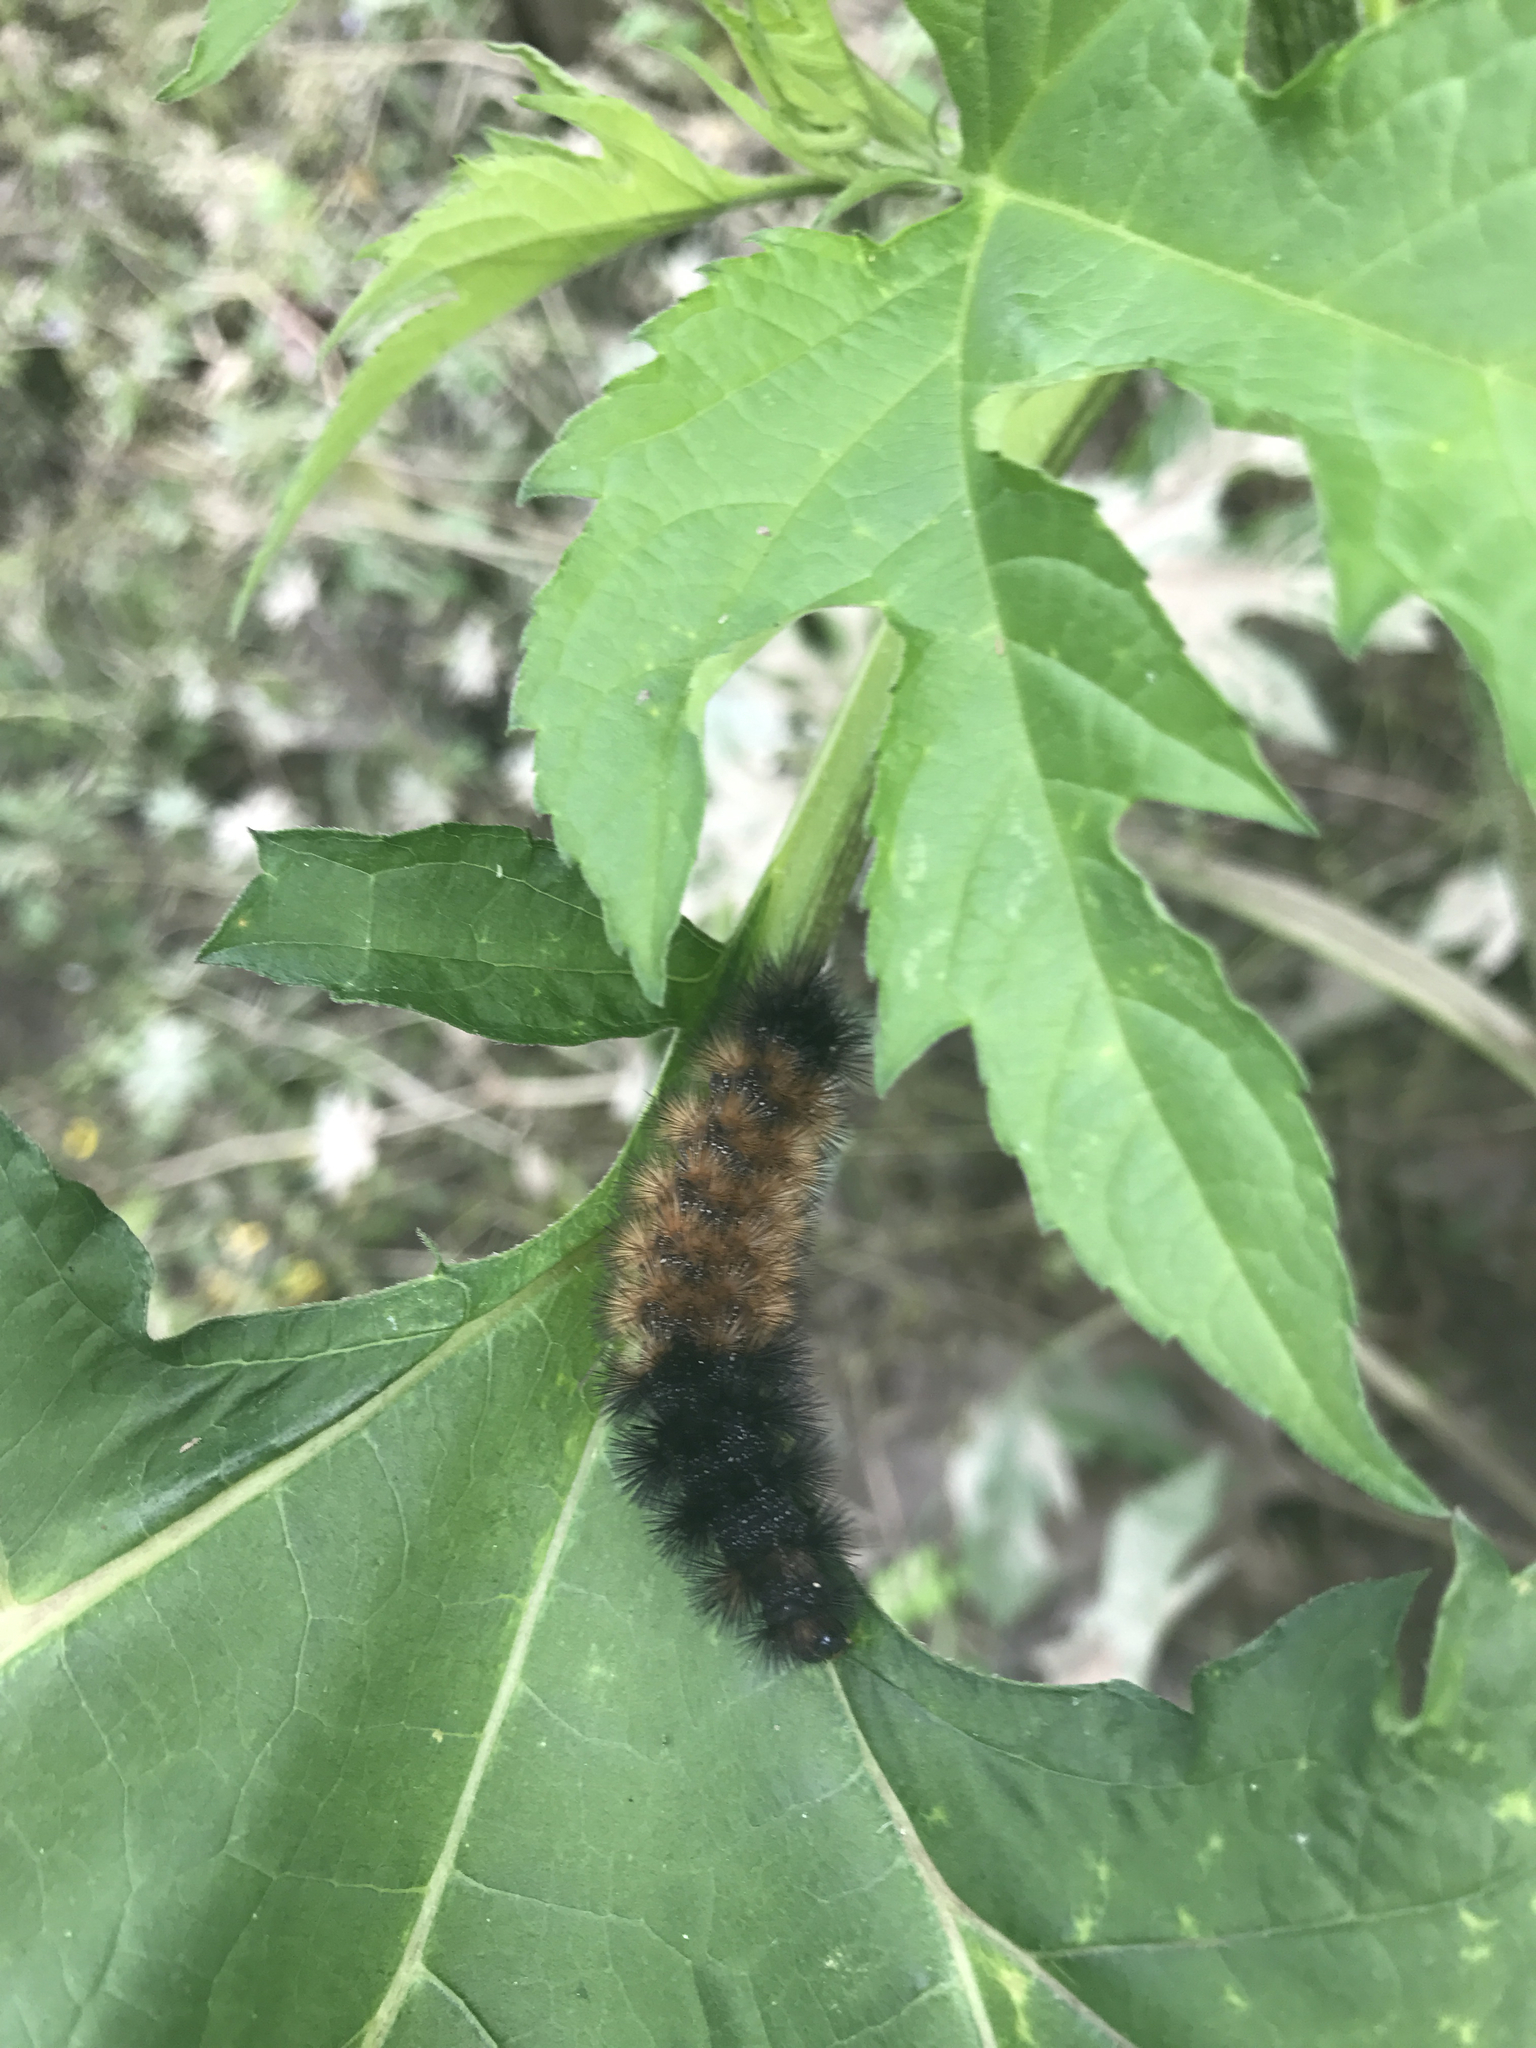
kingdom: Animalia
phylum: Arthropoda
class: Insecta
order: Lepidoptera
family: Erebidae
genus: Pyrrharctia
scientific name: Pyrrharctia isabella
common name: Isabella tiger moth
